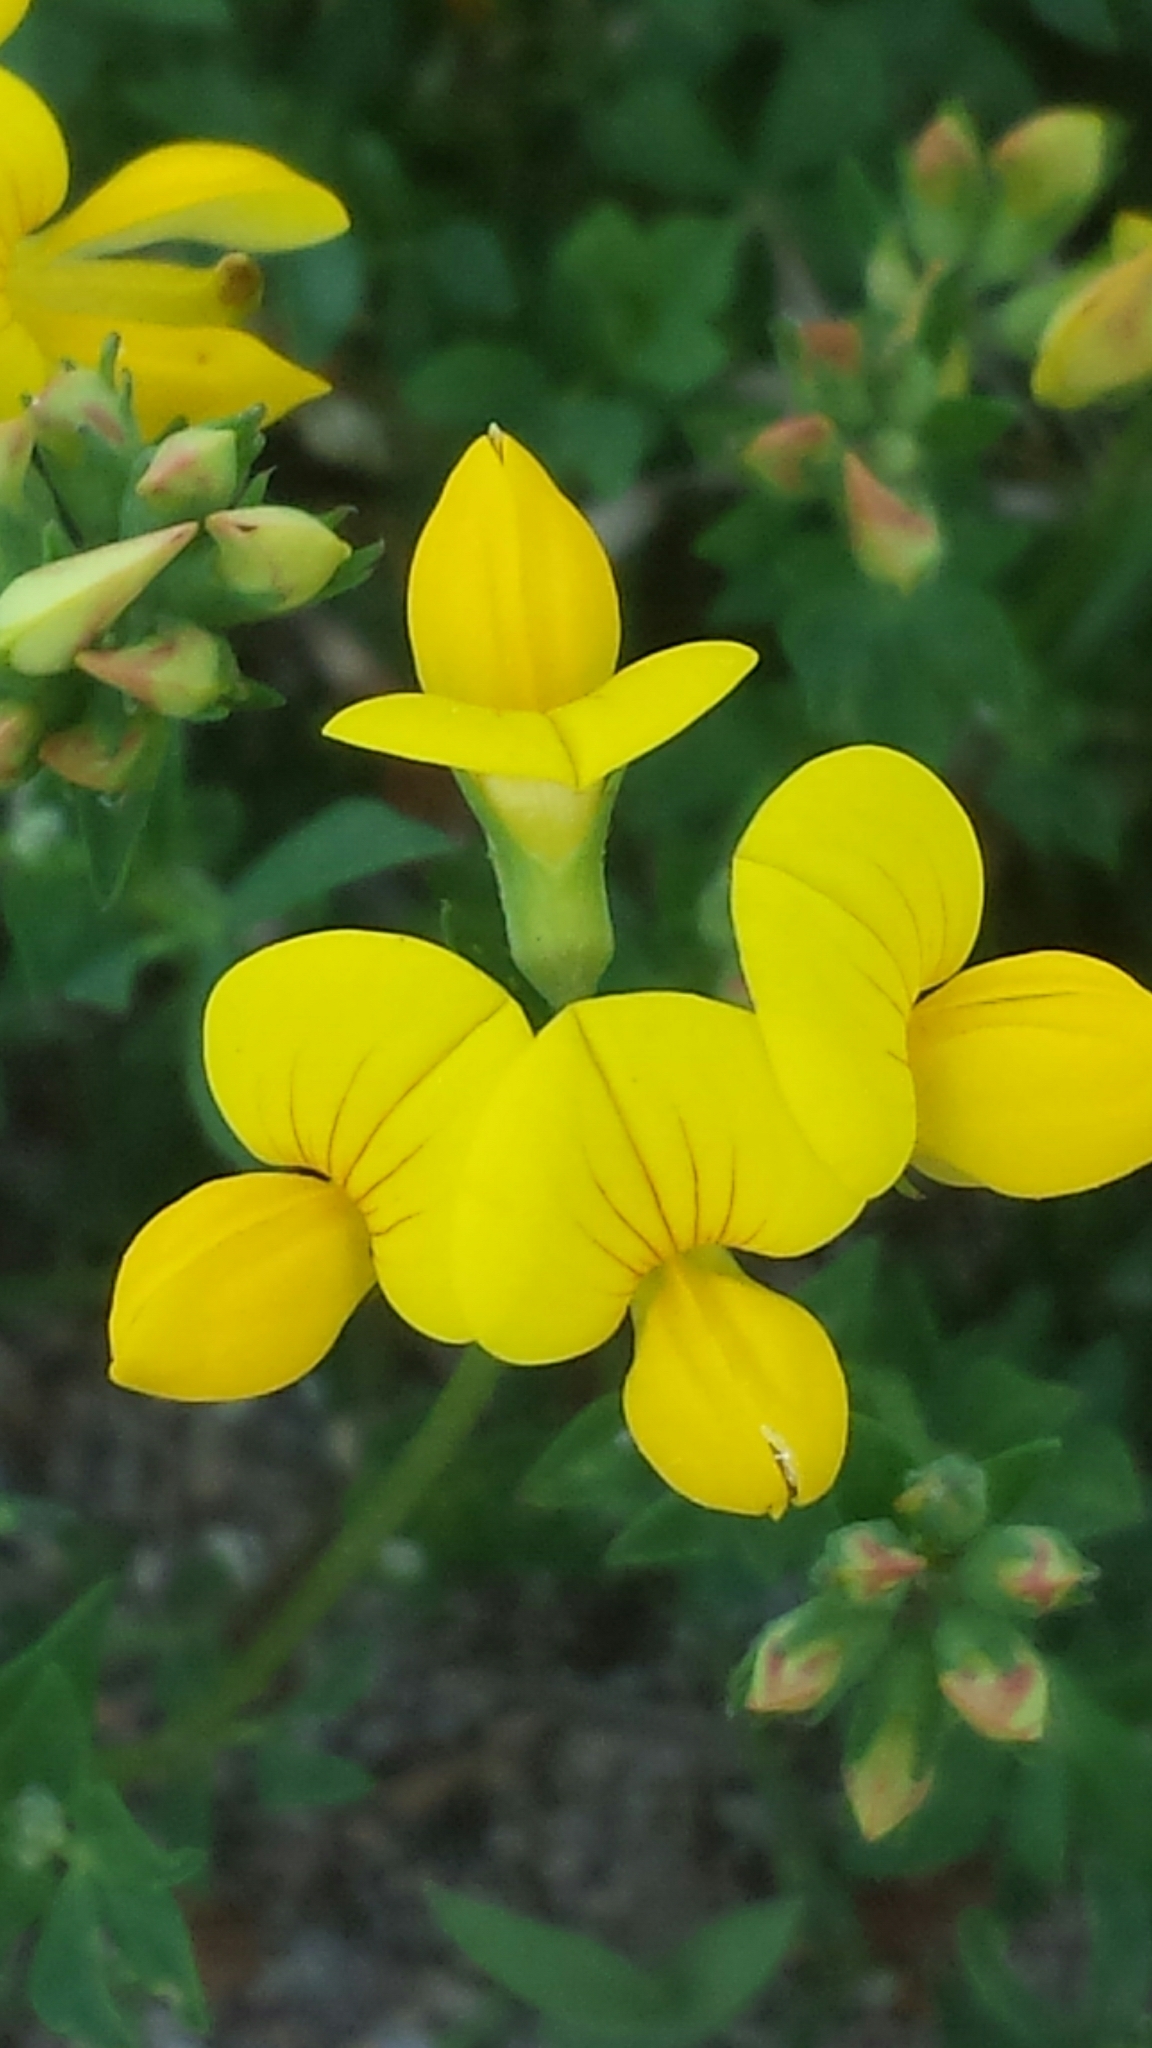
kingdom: Plantae
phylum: Tracheophyta
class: Magnoliopsida
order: Fabales
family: Fabaceae
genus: Lotus
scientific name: Lotus corniculatus
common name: Common bird's-foot-trefoil
